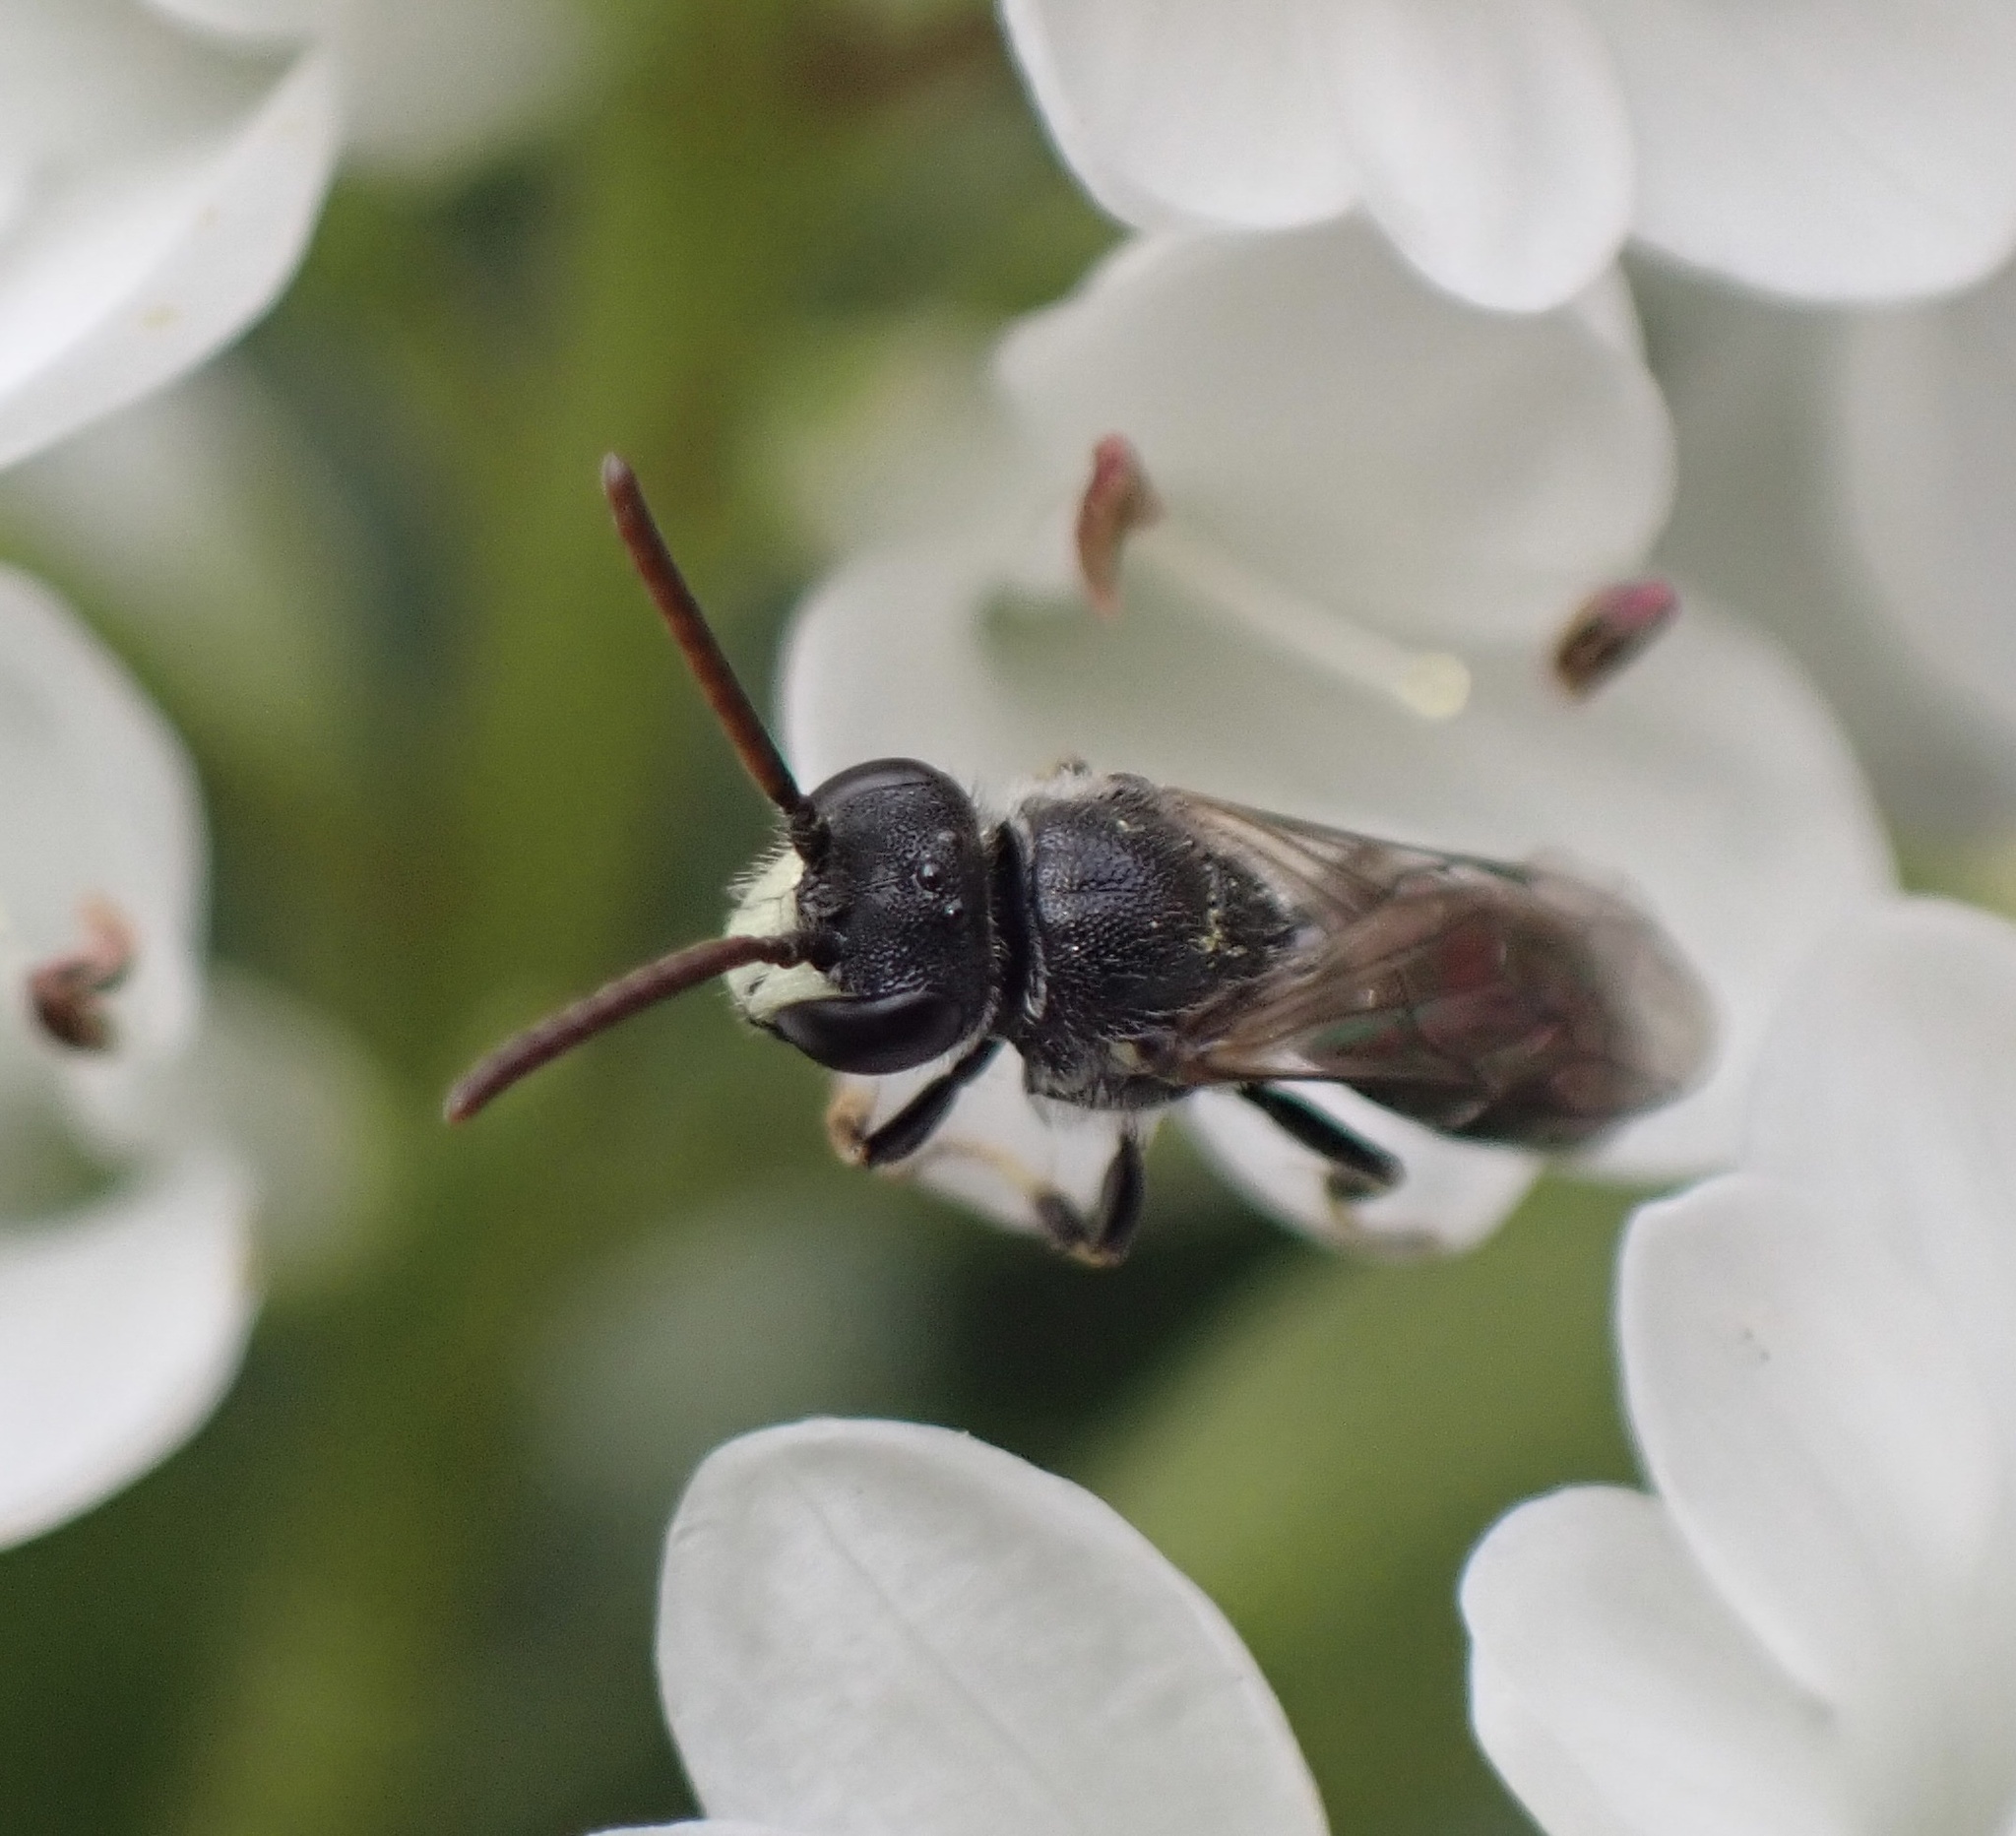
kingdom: Animalia
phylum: Arthropoda
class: Insecta
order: Hymenoptera
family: Colletidae
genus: Hylaeus
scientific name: Hylaeus hyalinatus
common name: Hyaline masked bee
